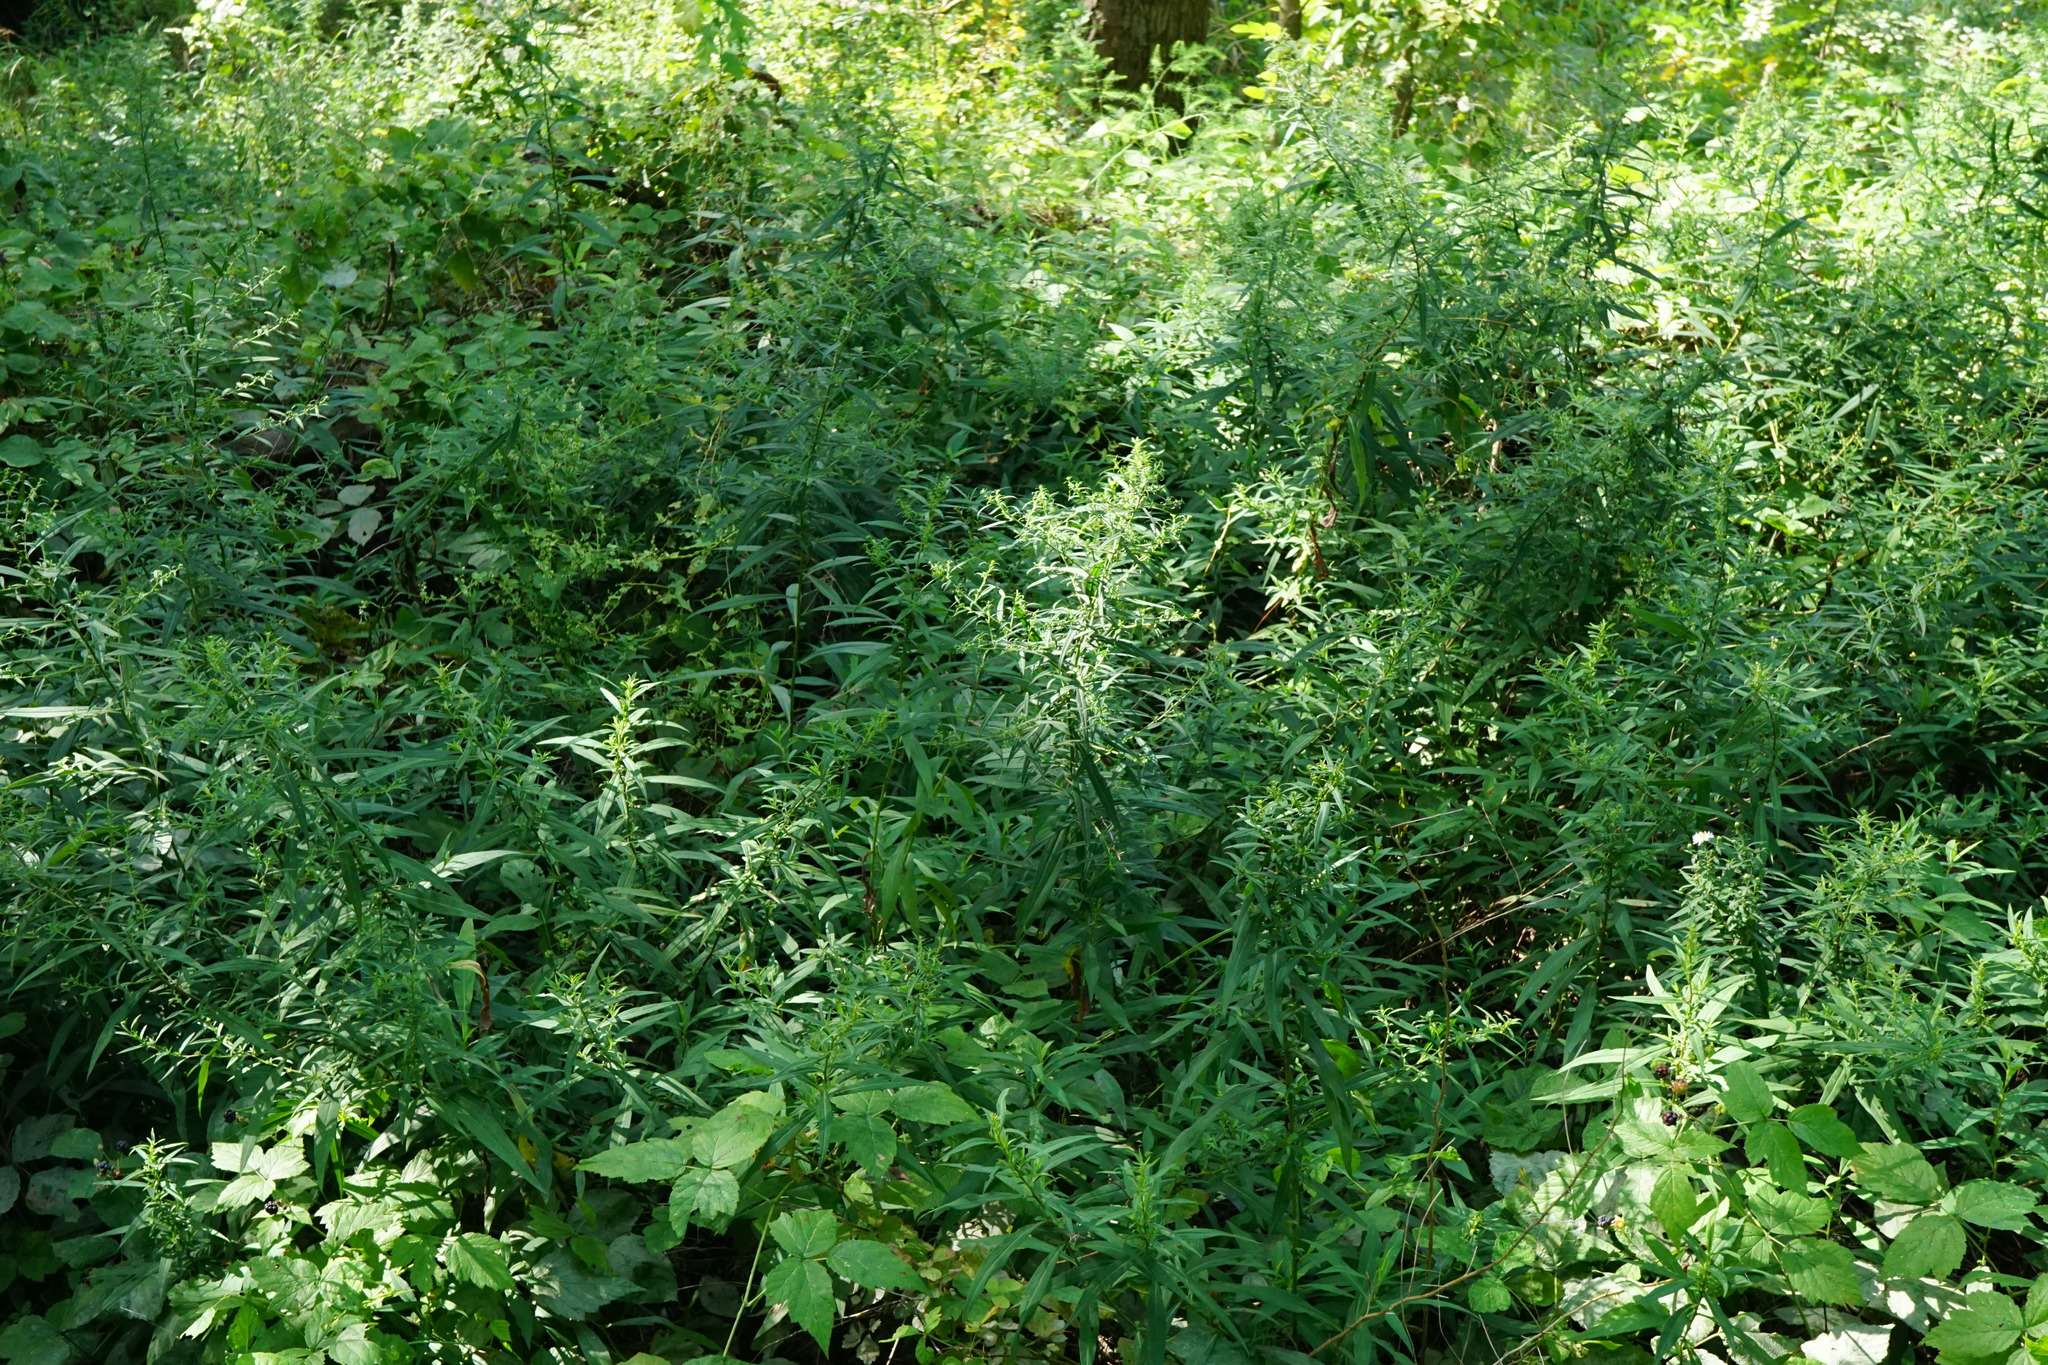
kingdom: Plantae
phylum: Tracheophyta
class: Magnoliopsida
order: Asterales
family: Asteraceae
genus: Symphyotrichum
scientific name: Symphyotrichum lanceolatum
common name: Panicled aster
